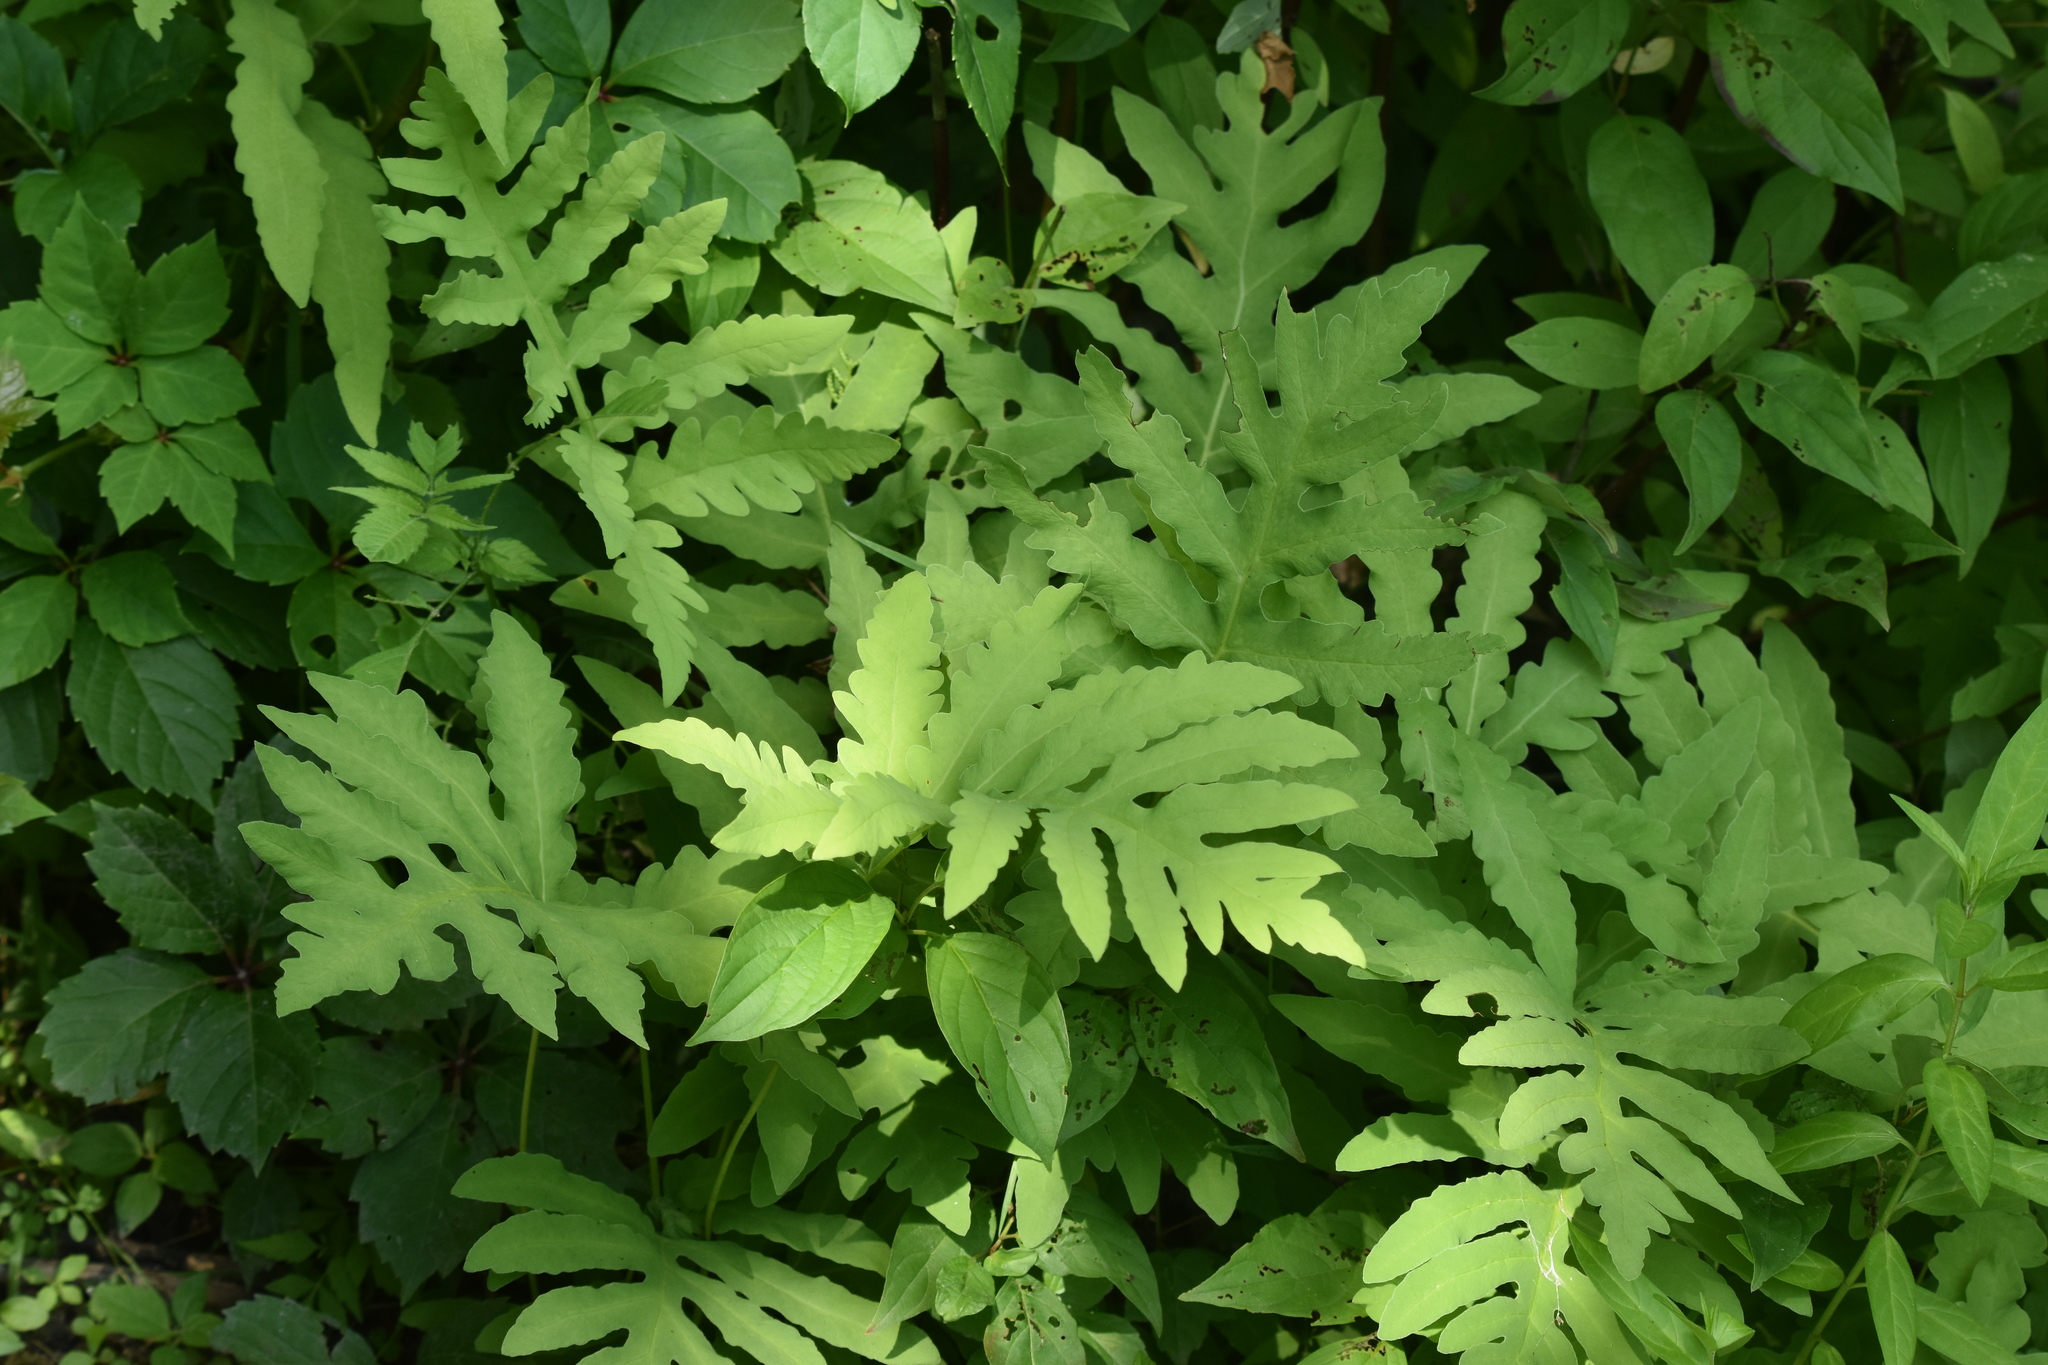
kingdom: Plantae
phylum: Tracheophyta
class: Polypodiopsida
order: Polypodiales
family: Onocleaceae
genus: Onoclea
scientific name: Onoclea sensibilis
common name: Sensitive fern
